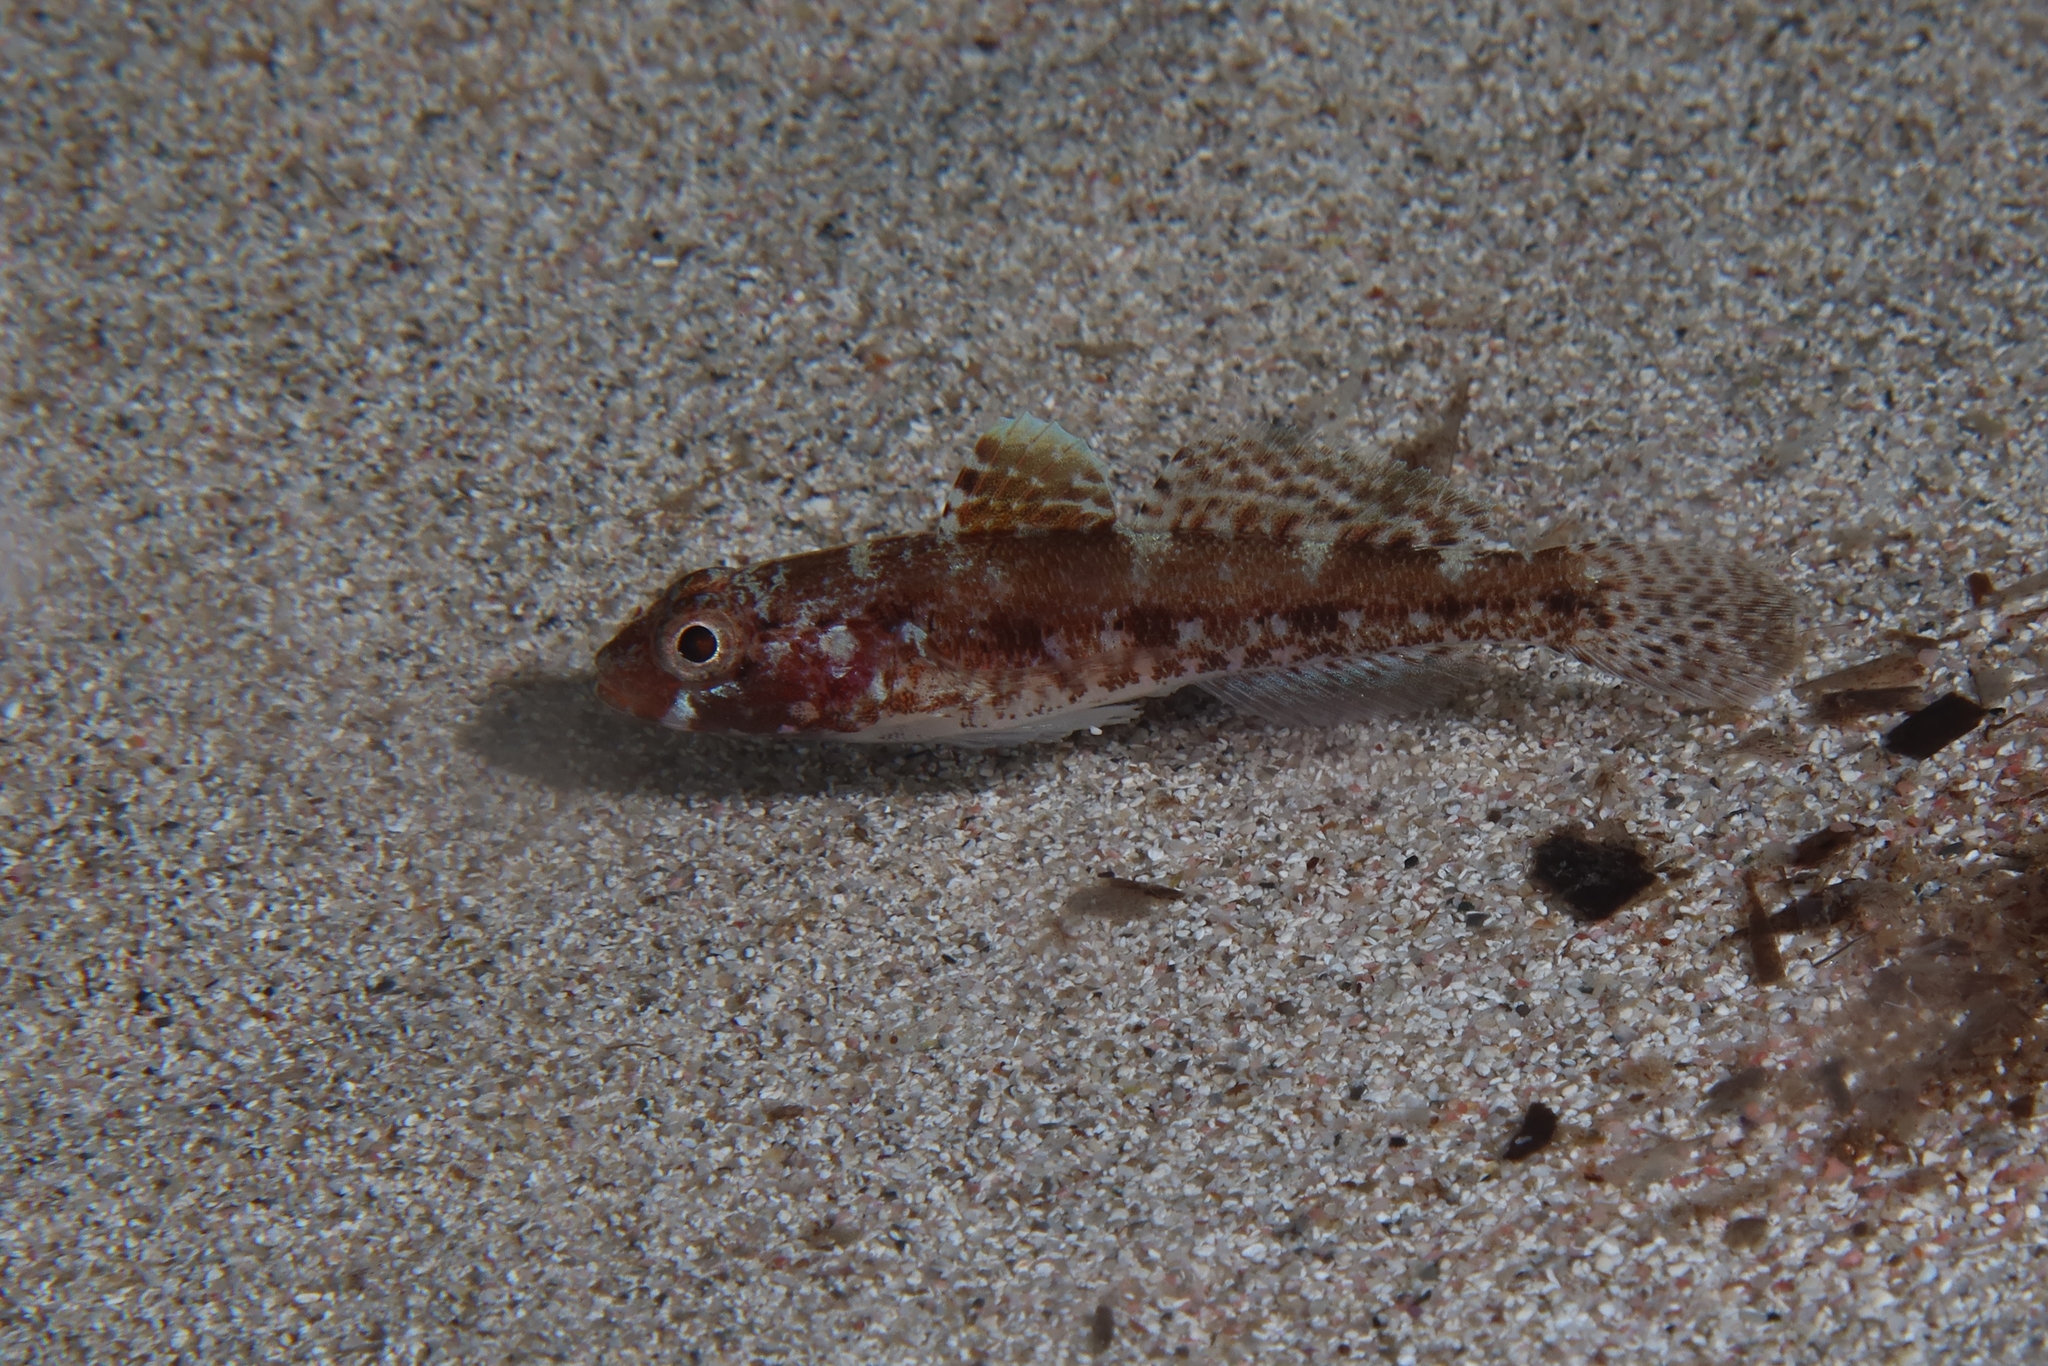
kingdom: Animalia
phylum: Chordata
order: Perciformes
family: Gobiidae
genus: Gobius
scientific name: Gobius cruentatus
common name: Red-mouthed goby
